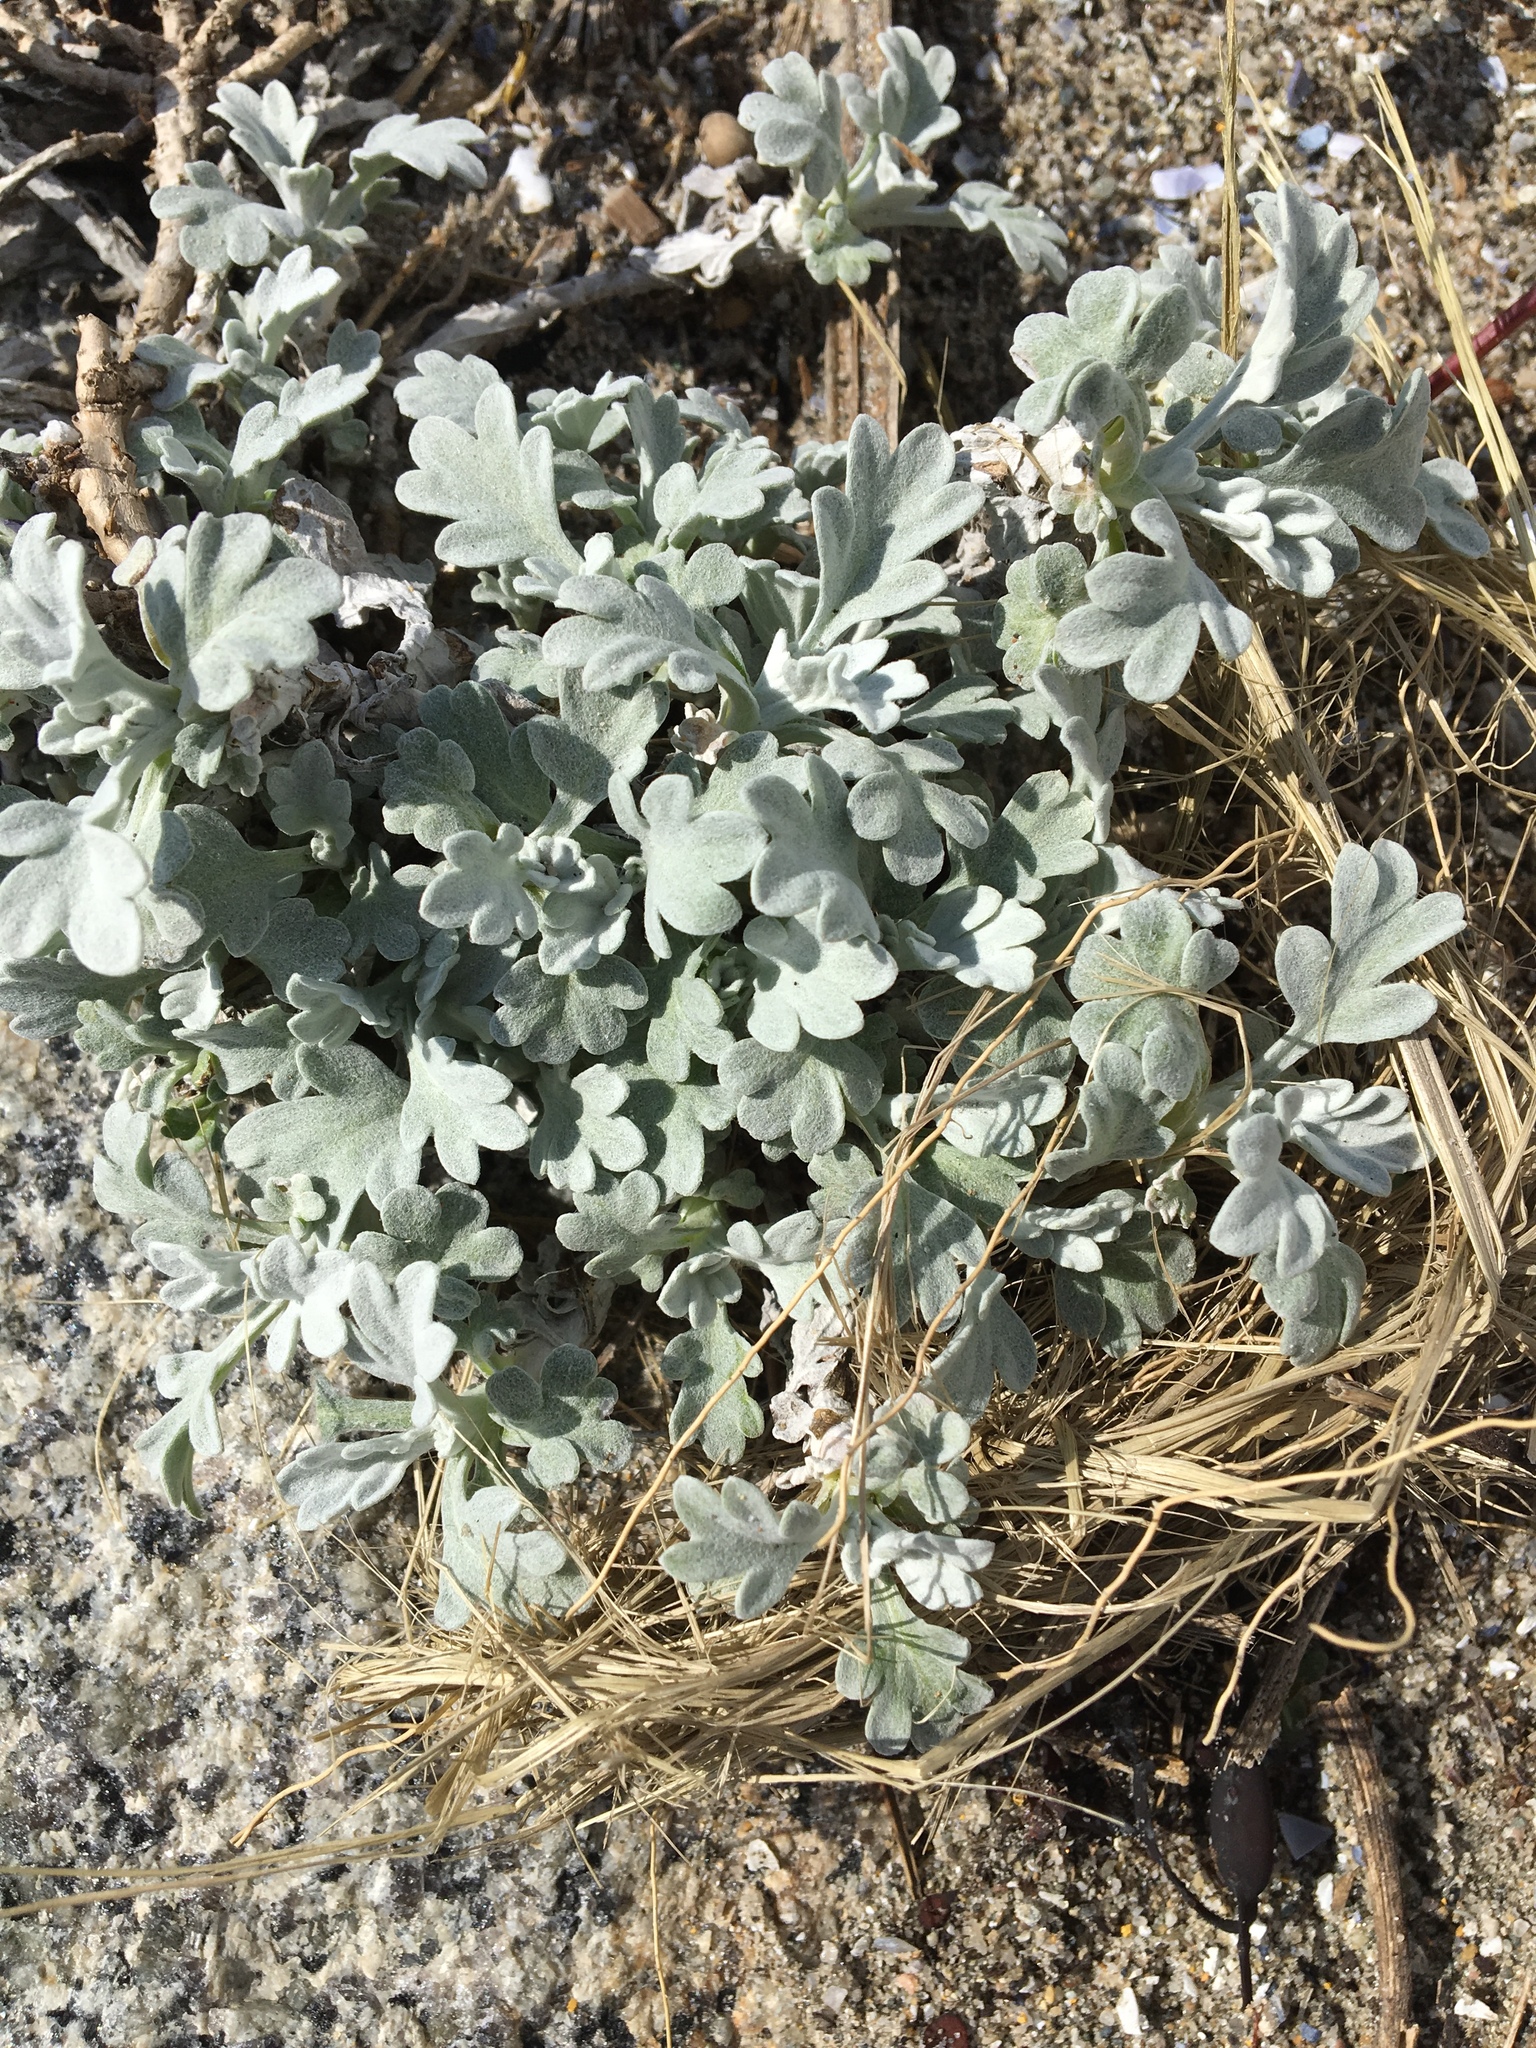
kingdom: Plantae
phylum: Tracheophyta
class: Magnoliopsida
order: Asterales
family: Asteraceae
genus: Artemisia
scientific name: Artemisia stelleriana
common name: Beach wormwood
